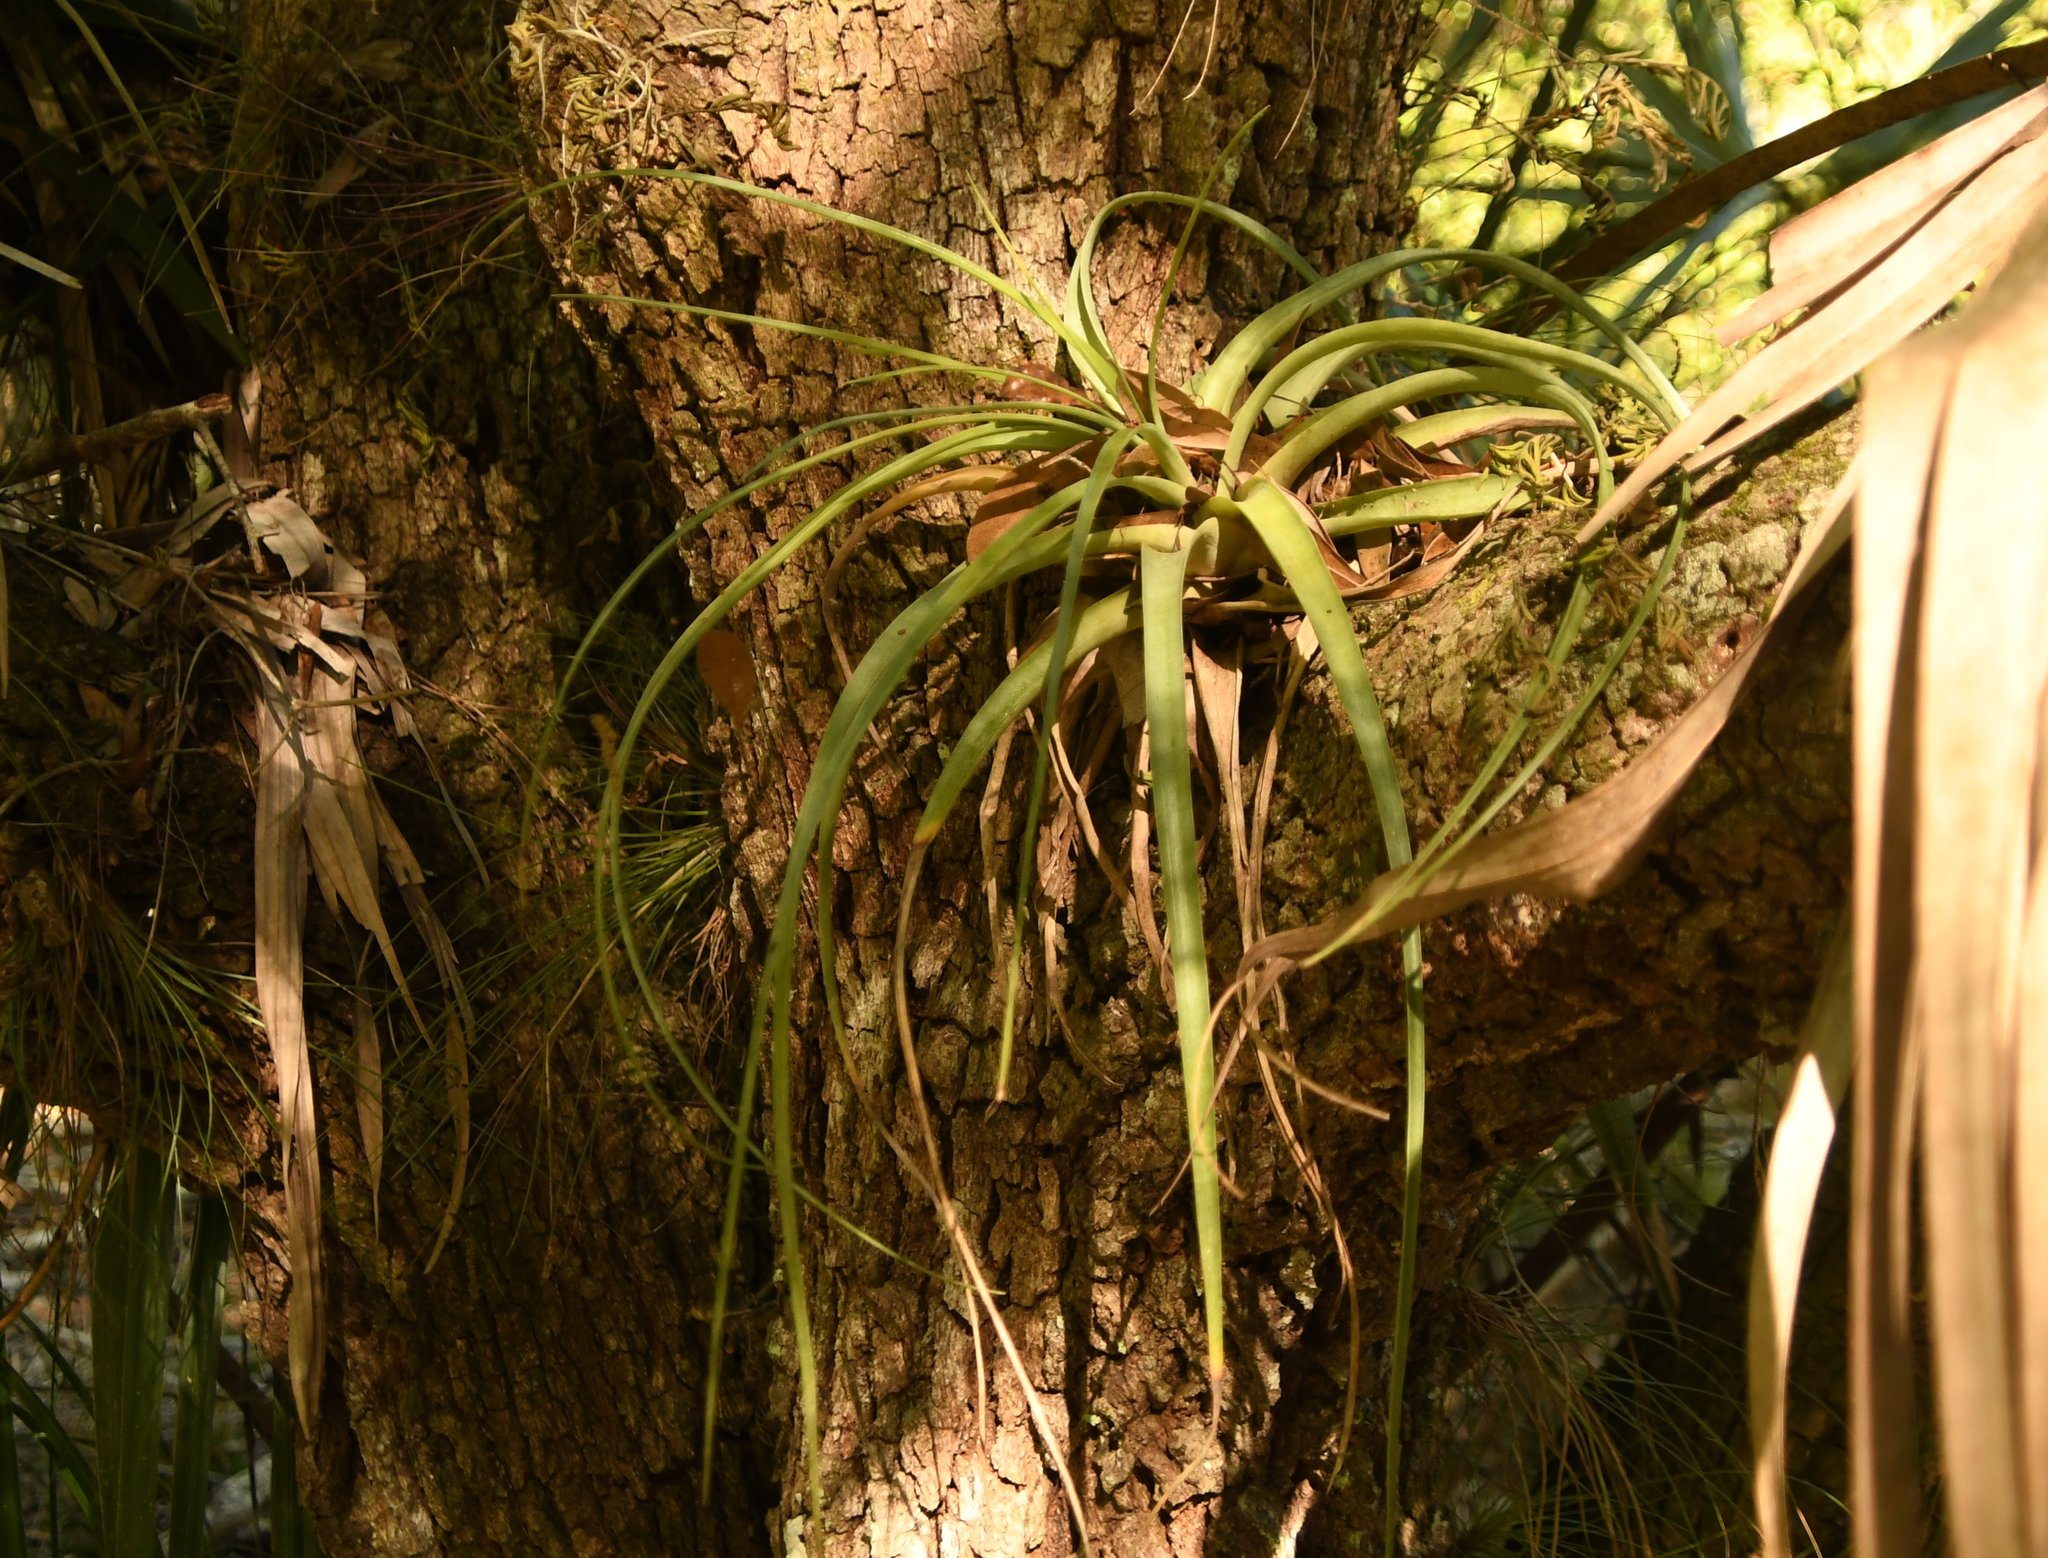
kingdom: Plantae
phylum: Tracheophyta
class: Liliopsida
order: Poales
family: Bromeliaceae
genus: Tillandsia
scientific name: Tillandsia utriculata
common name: Wild pine
